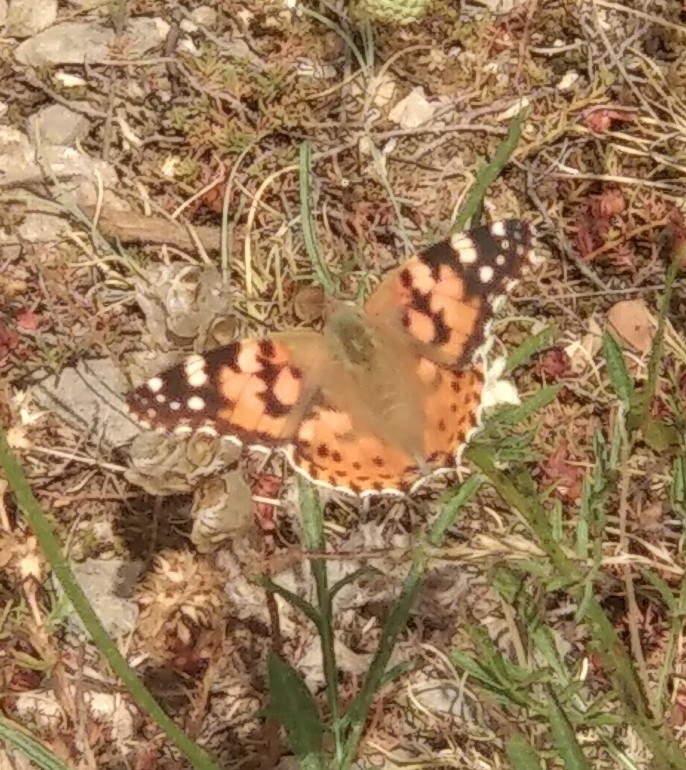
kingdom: Animalia
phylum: Arthropoda
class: Insecta
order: Lepidoptera
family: Nymphalidae
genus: Vanessa
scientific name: Vanessa cardui
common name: Painted lady
